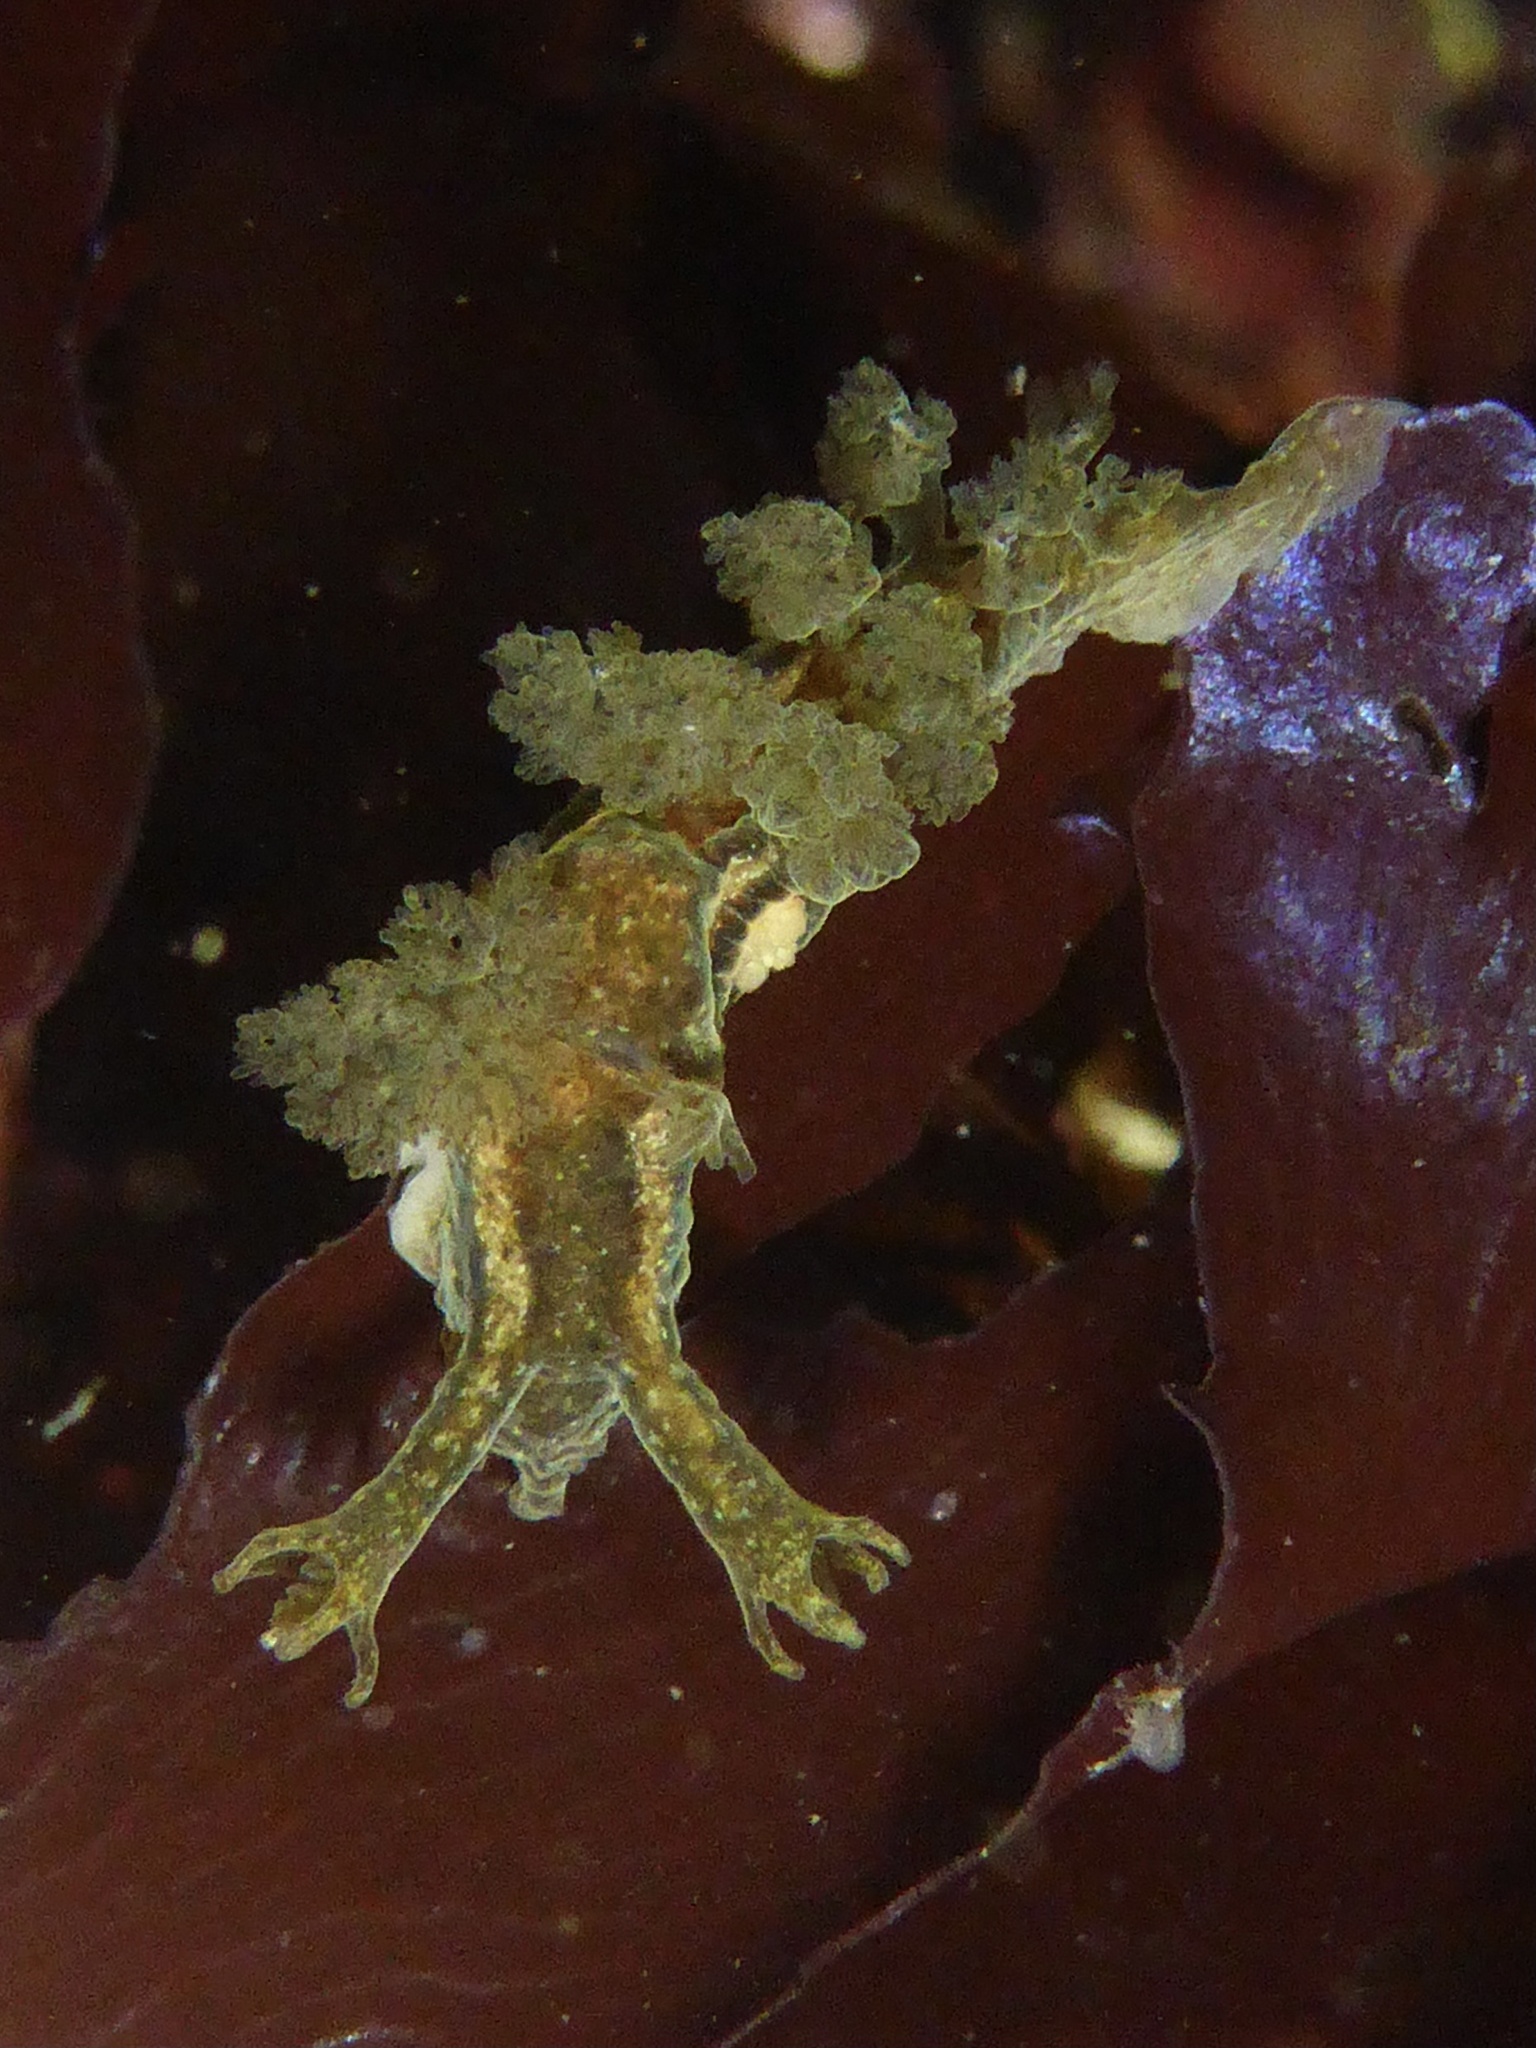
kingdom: Animalia
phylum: Mollusca
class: Gastropoda
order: Nudibranchia
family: Dendronotidae
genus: Dendronotus
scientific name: Dendronotus subramosus
